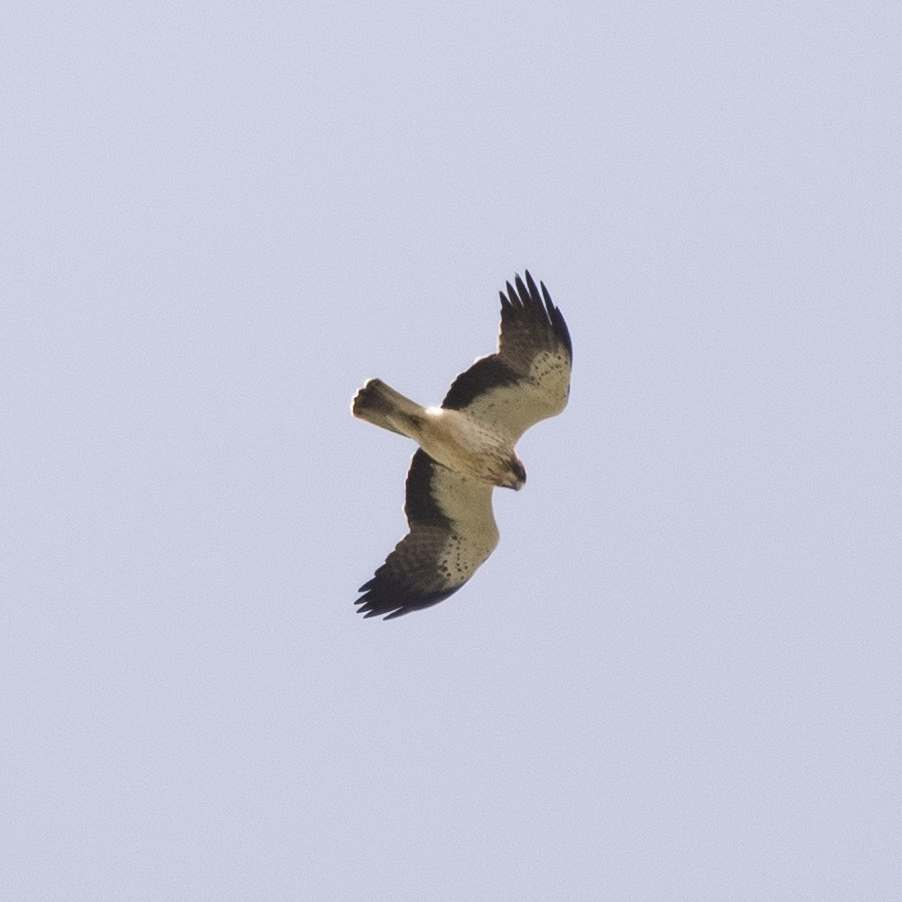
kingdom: Animalia
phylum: Chordata
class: Aves
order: Accipitriformes
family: Accipitridae
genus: Hieraaetus
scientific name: Hieraaetus pennatus
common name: Booted eagle
